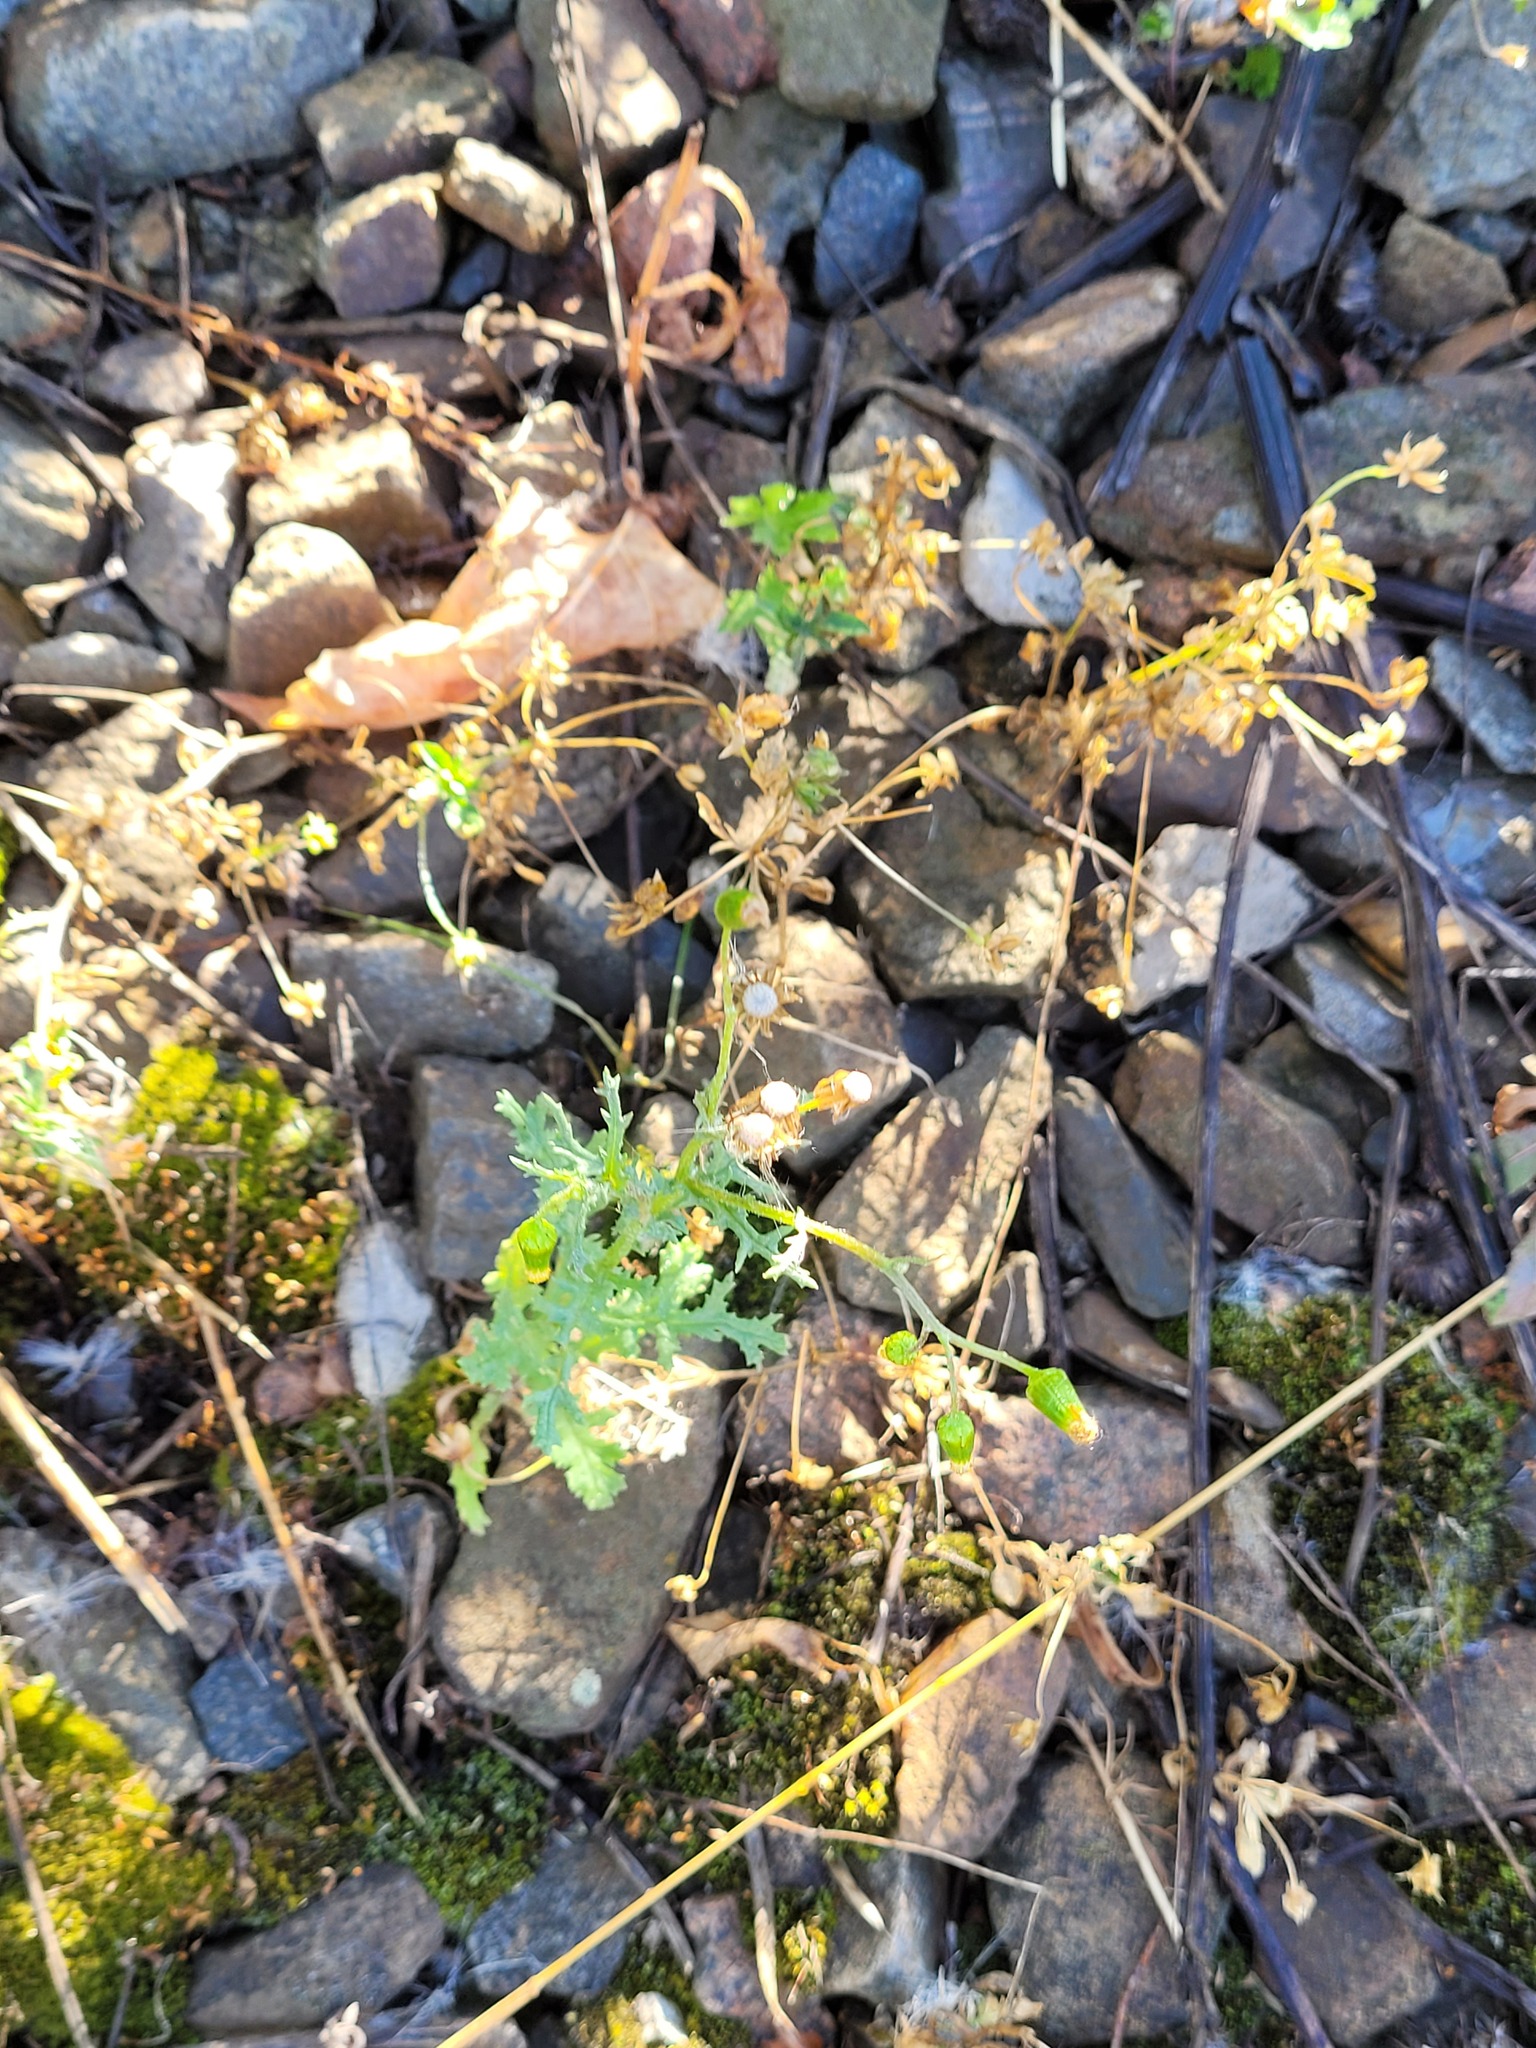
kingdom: Plantae
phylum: Tracheophyta
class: Magnoliopsida
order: Asterales
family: Asteraceae
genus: Senecio
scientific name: Senecio vulgaris
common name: Old-man-in-the-spring
